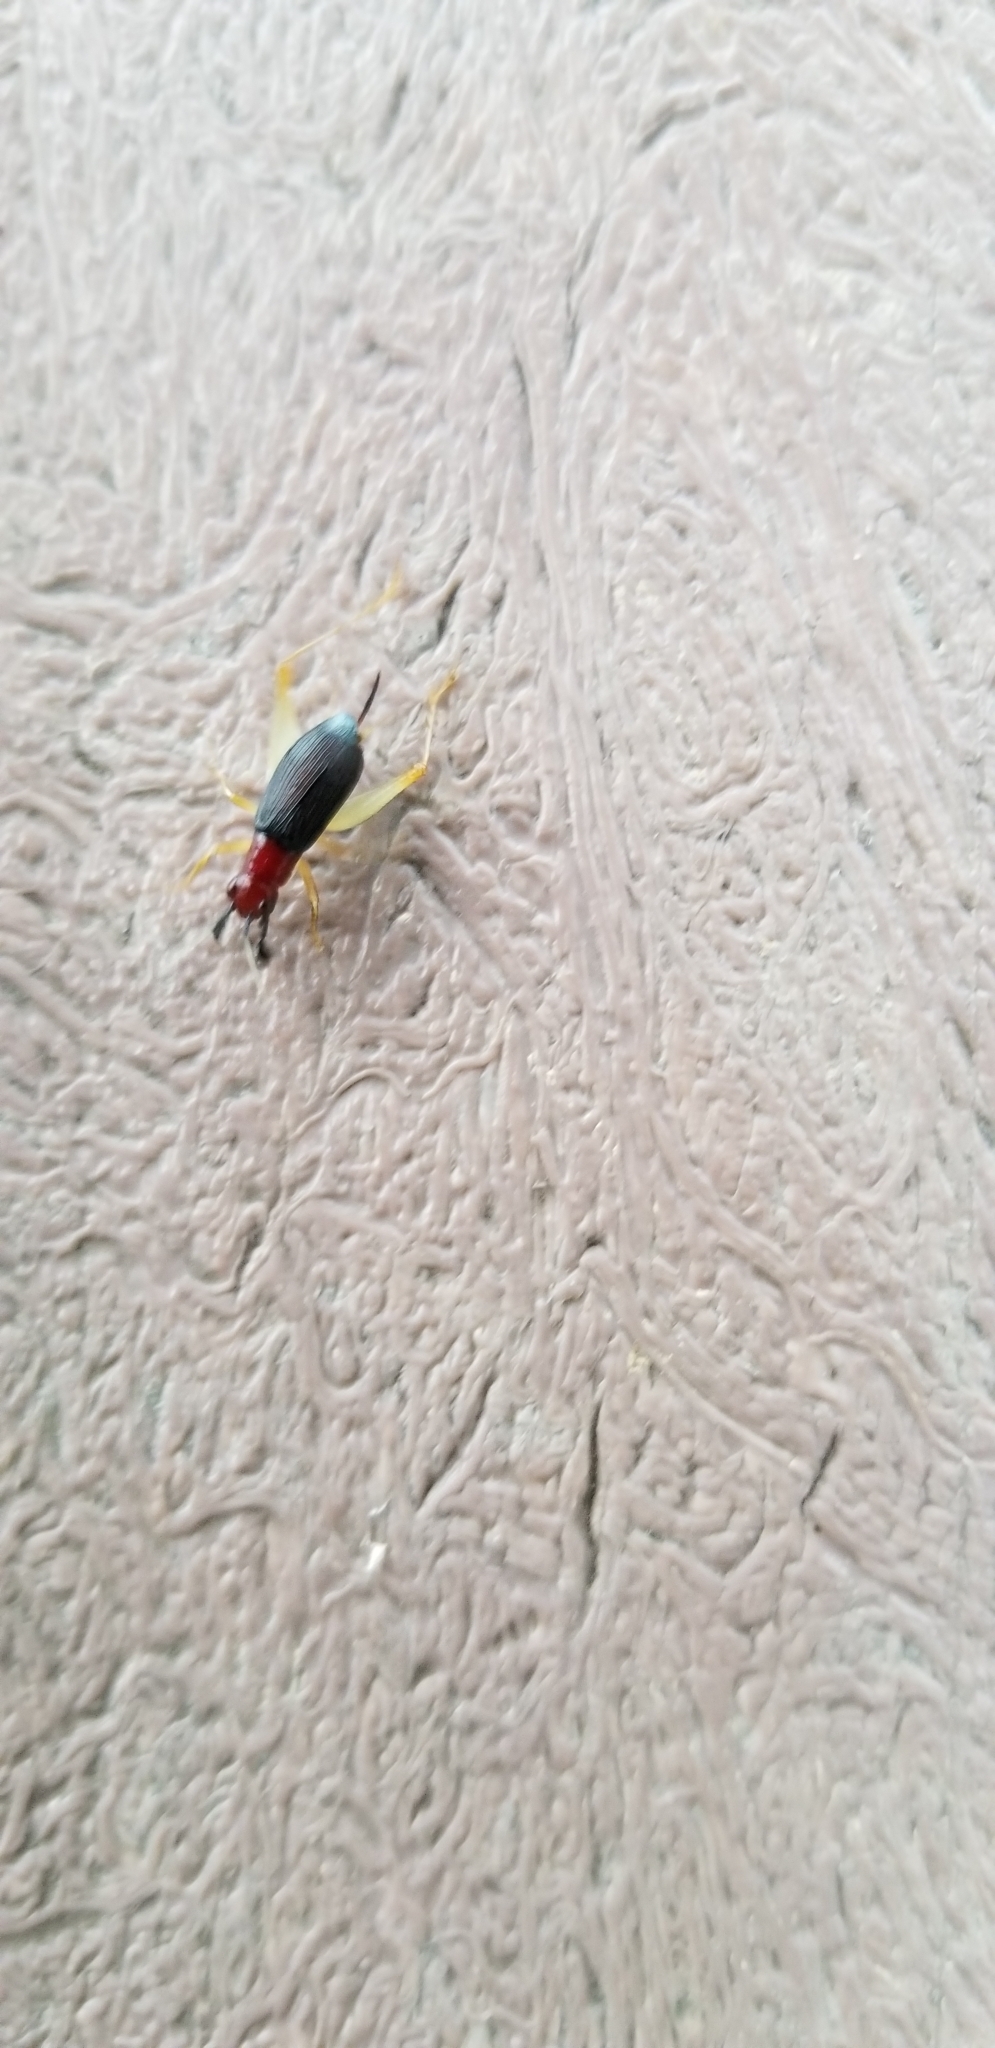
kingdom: Animalia
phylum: Arthropoda
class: Insecta
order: Orthoptera
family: Trigonidiidae
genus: Phyllopalpus
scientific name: Phyllopalpus pulchellus
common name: Handsome trig
